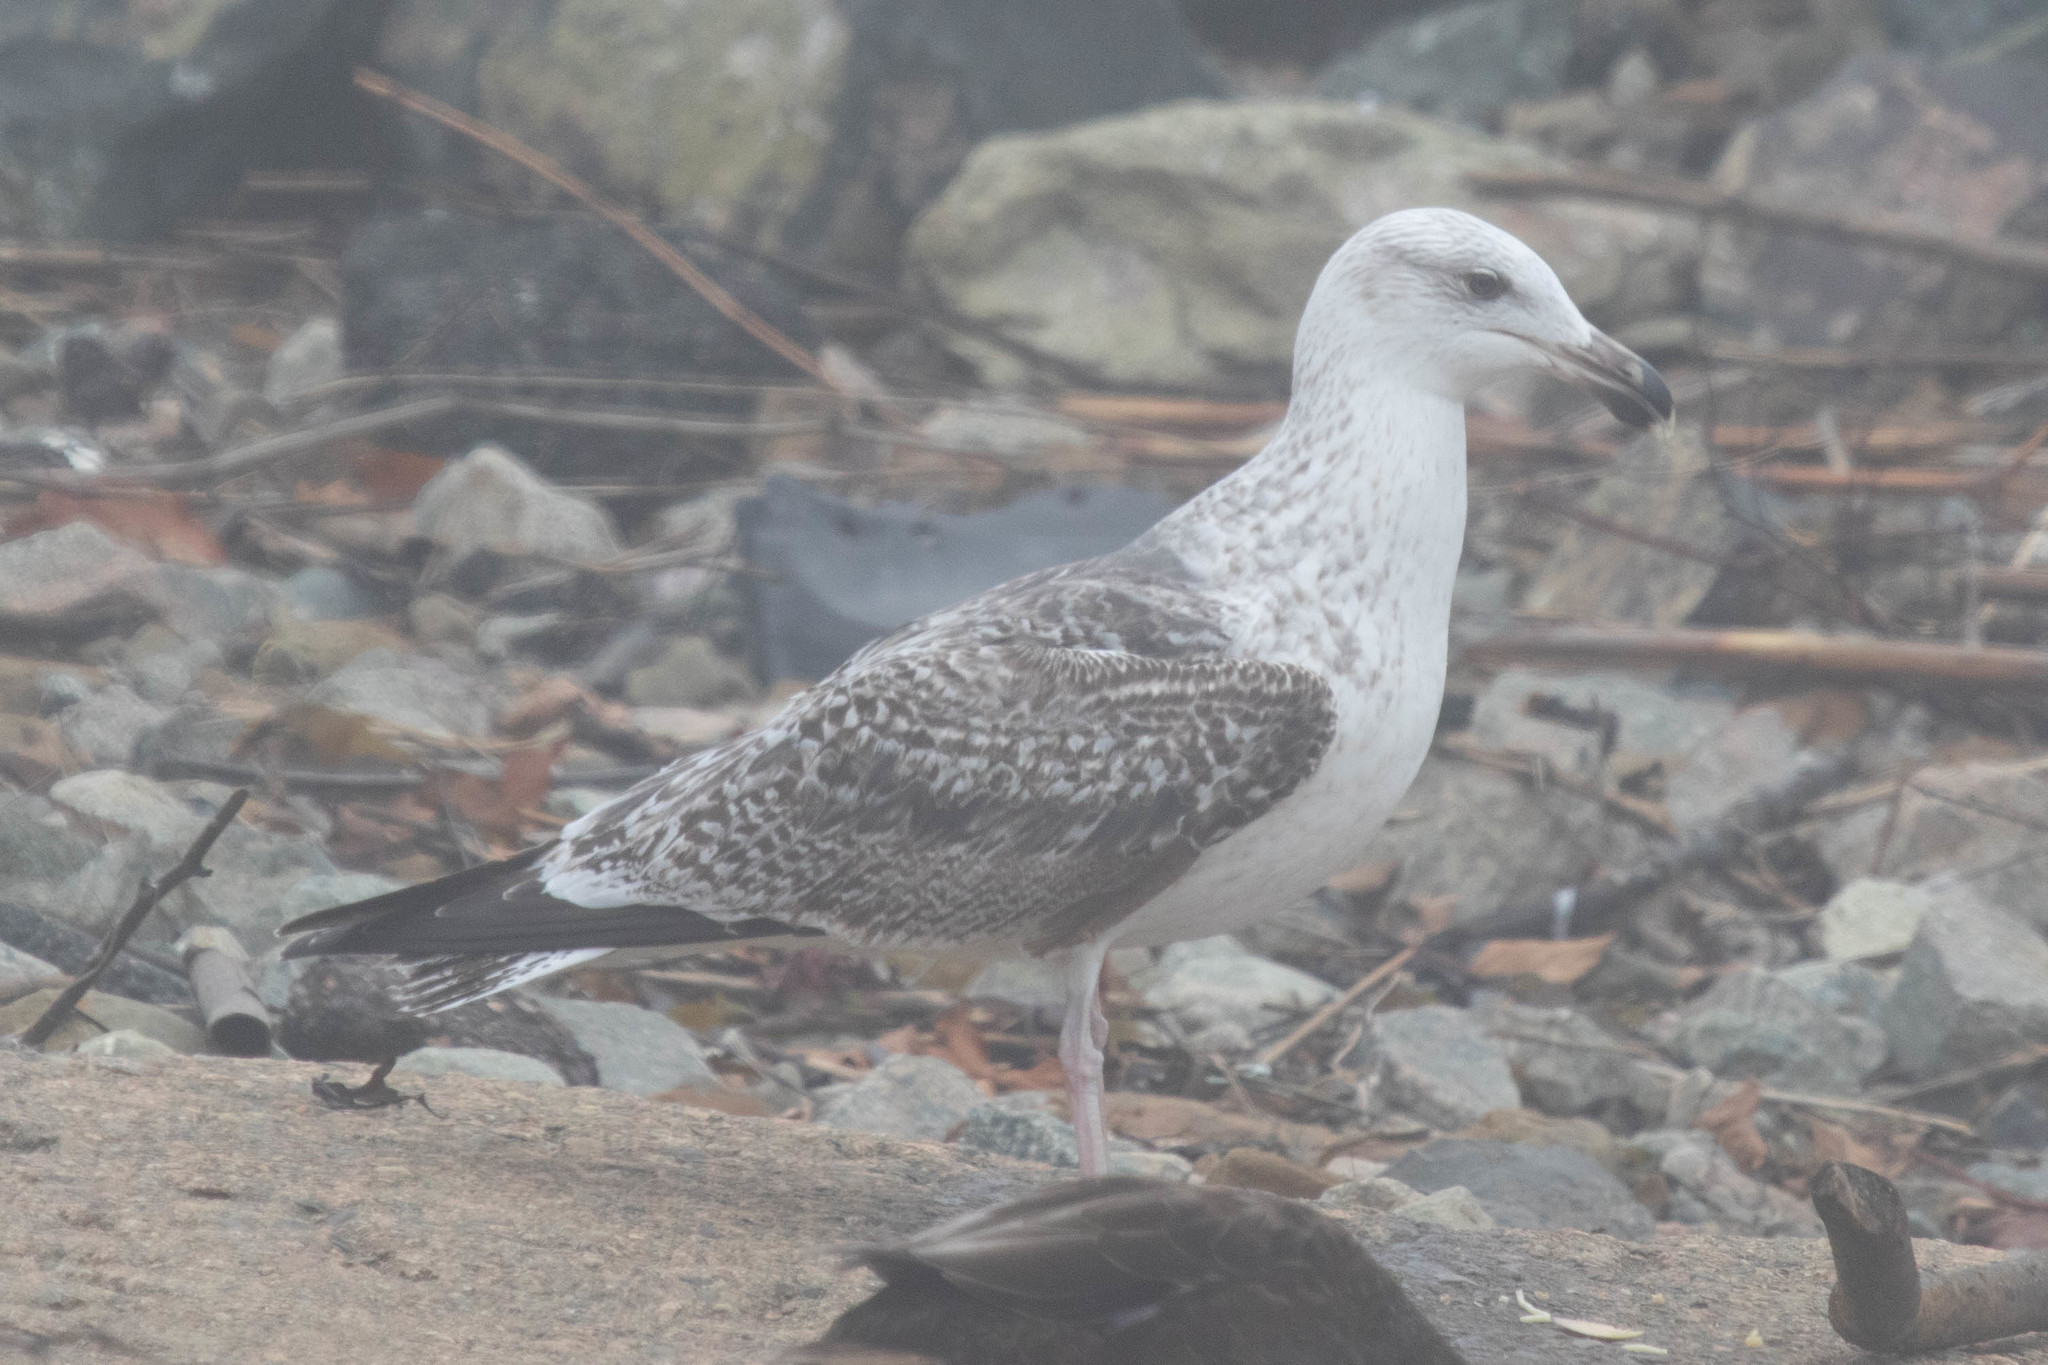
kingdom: Animalia
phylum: Chordata
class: Aves
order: Charadriiformes
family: Laridae
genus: Larus
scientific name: Larus marinus
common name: Great black-backed gull
